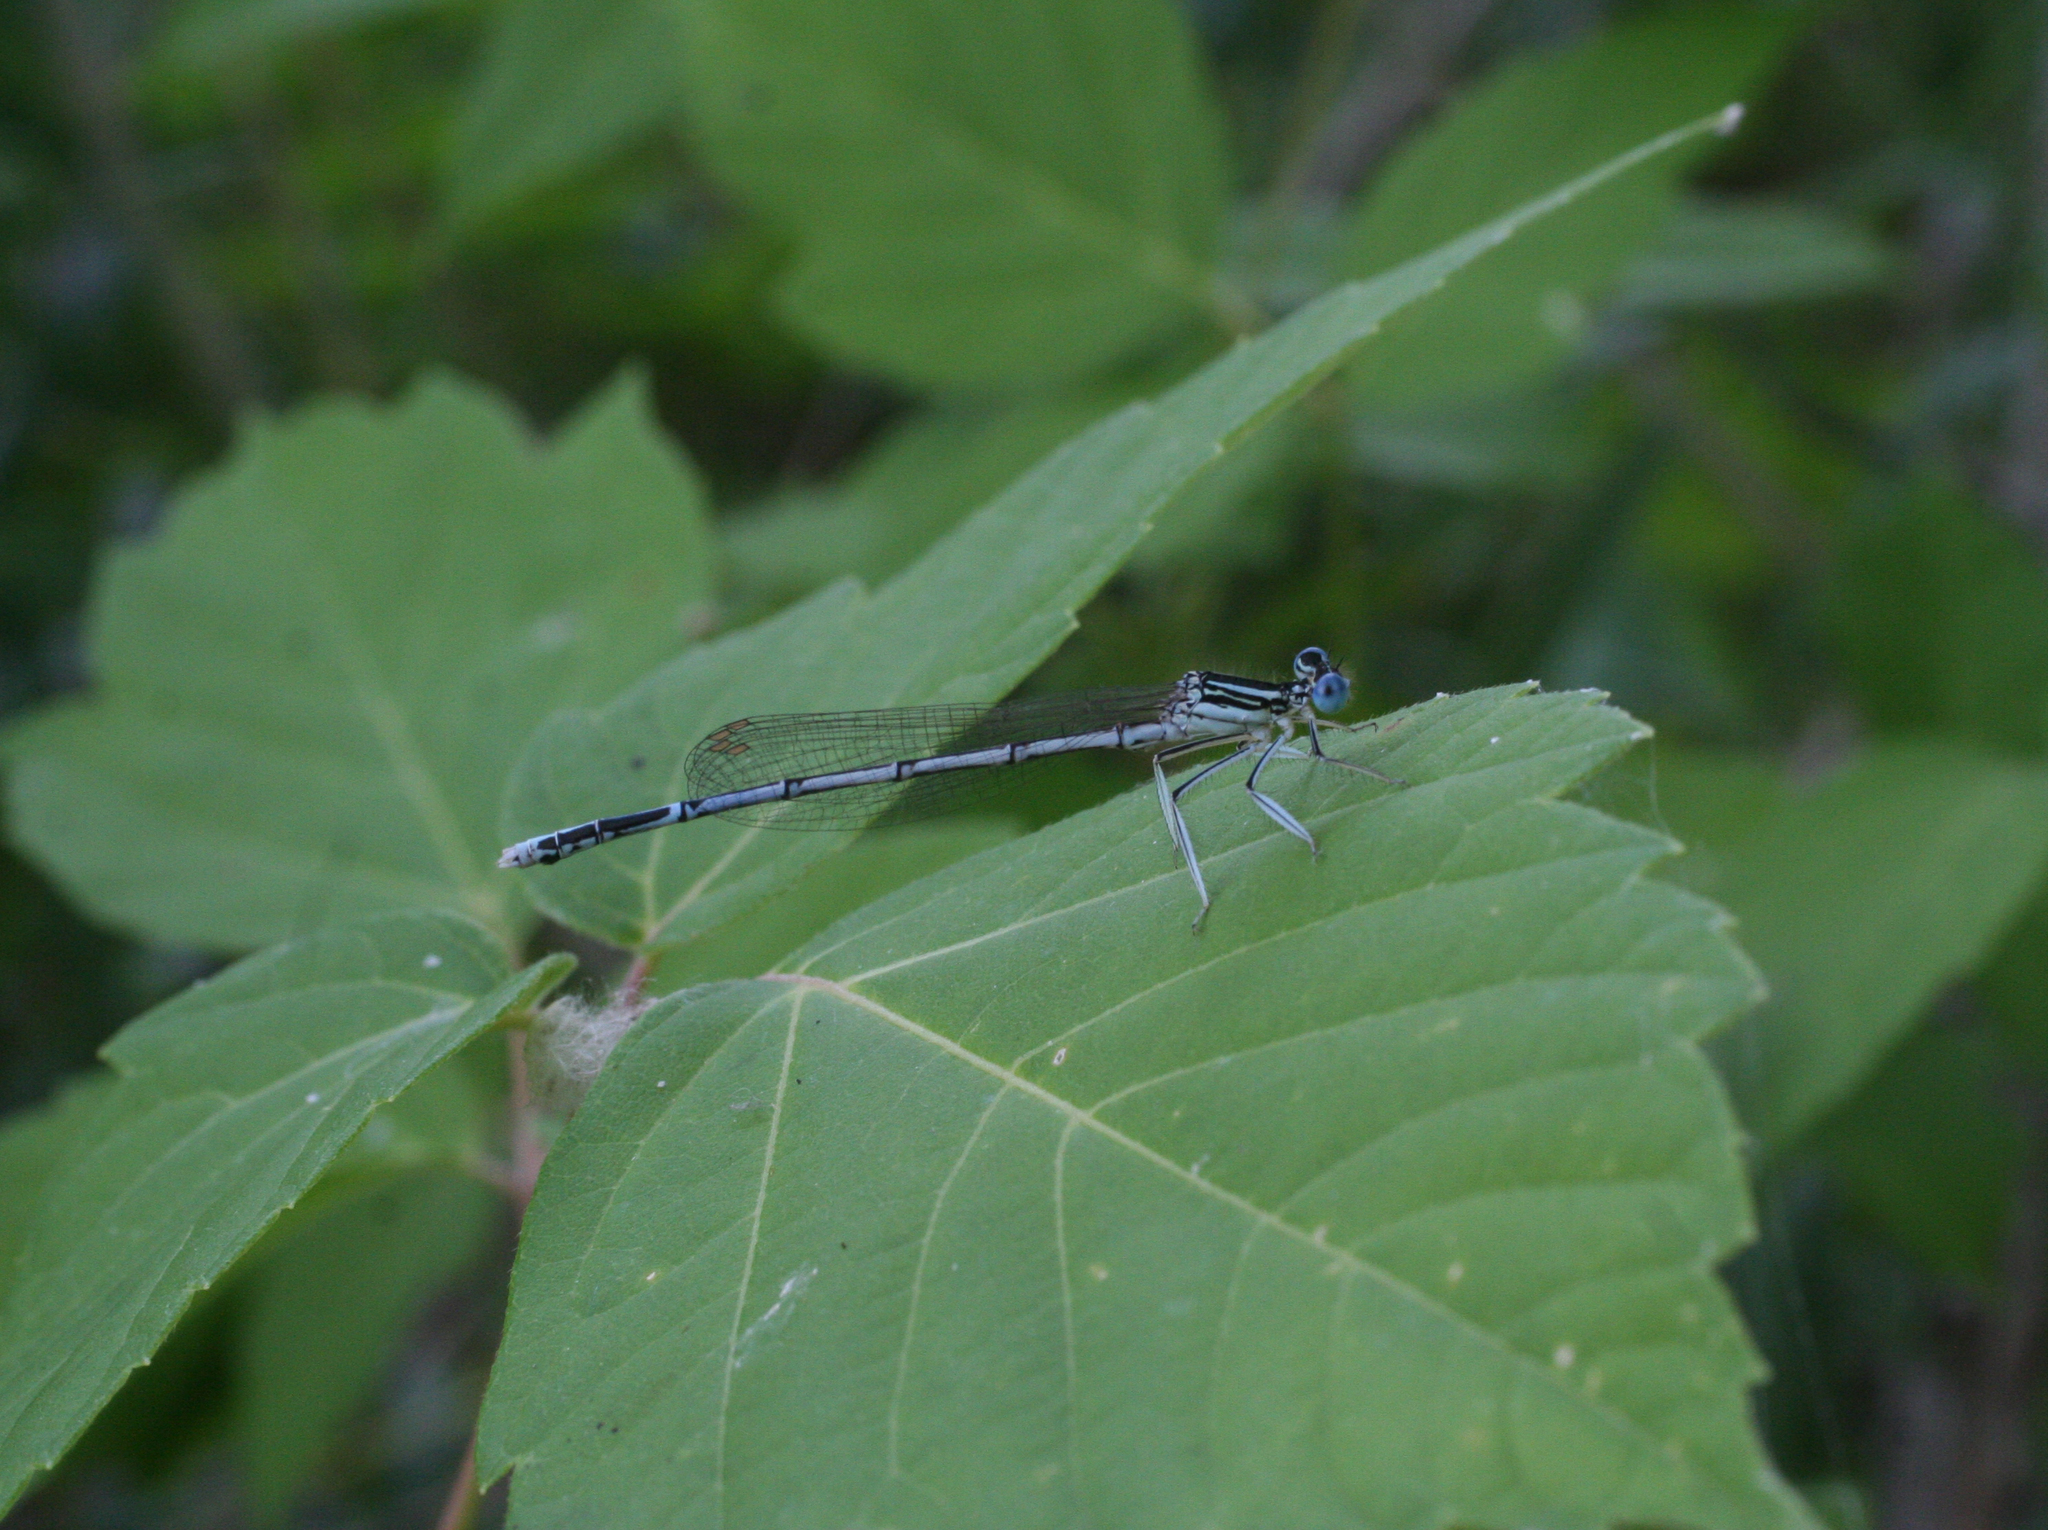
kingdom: Plantae
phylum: Tracheophyta
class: Magnoliopsida
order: Sapindales
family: Sapindaceae
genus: Acer
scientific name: Acer negundo
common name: Ashleaf maple
